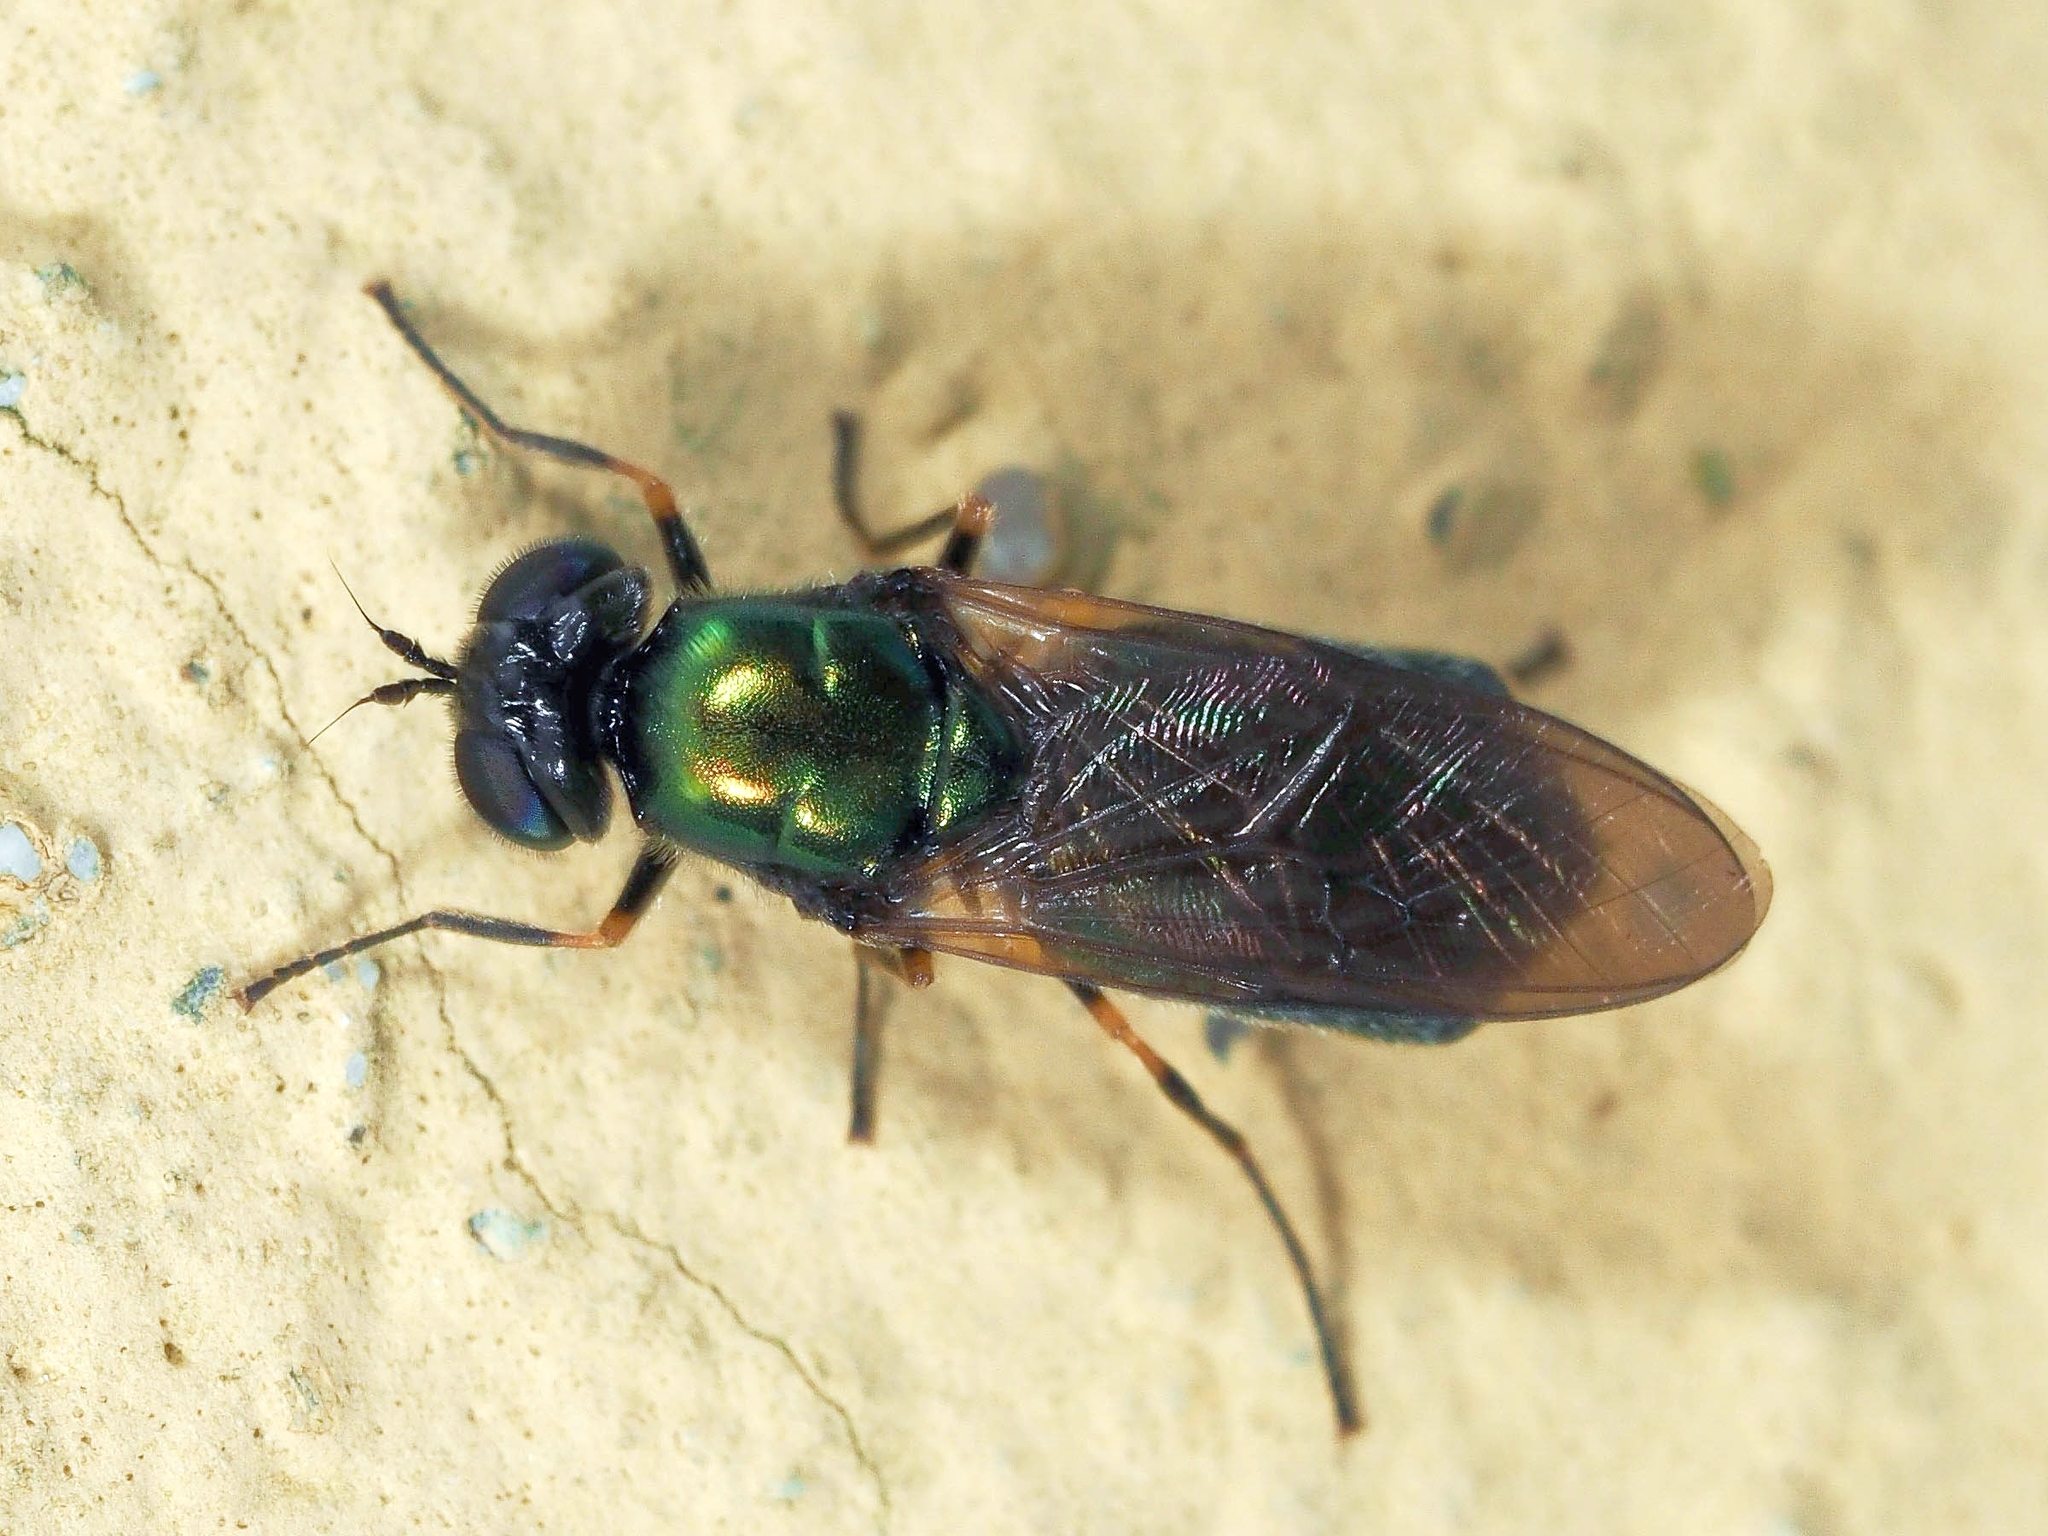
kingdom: Animalia
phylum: Arthropoda
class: Insecta
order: Diptera
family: Stratiomyidae
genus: Chloromyia
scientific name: Chloromyia formosa
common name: Soldier fly
